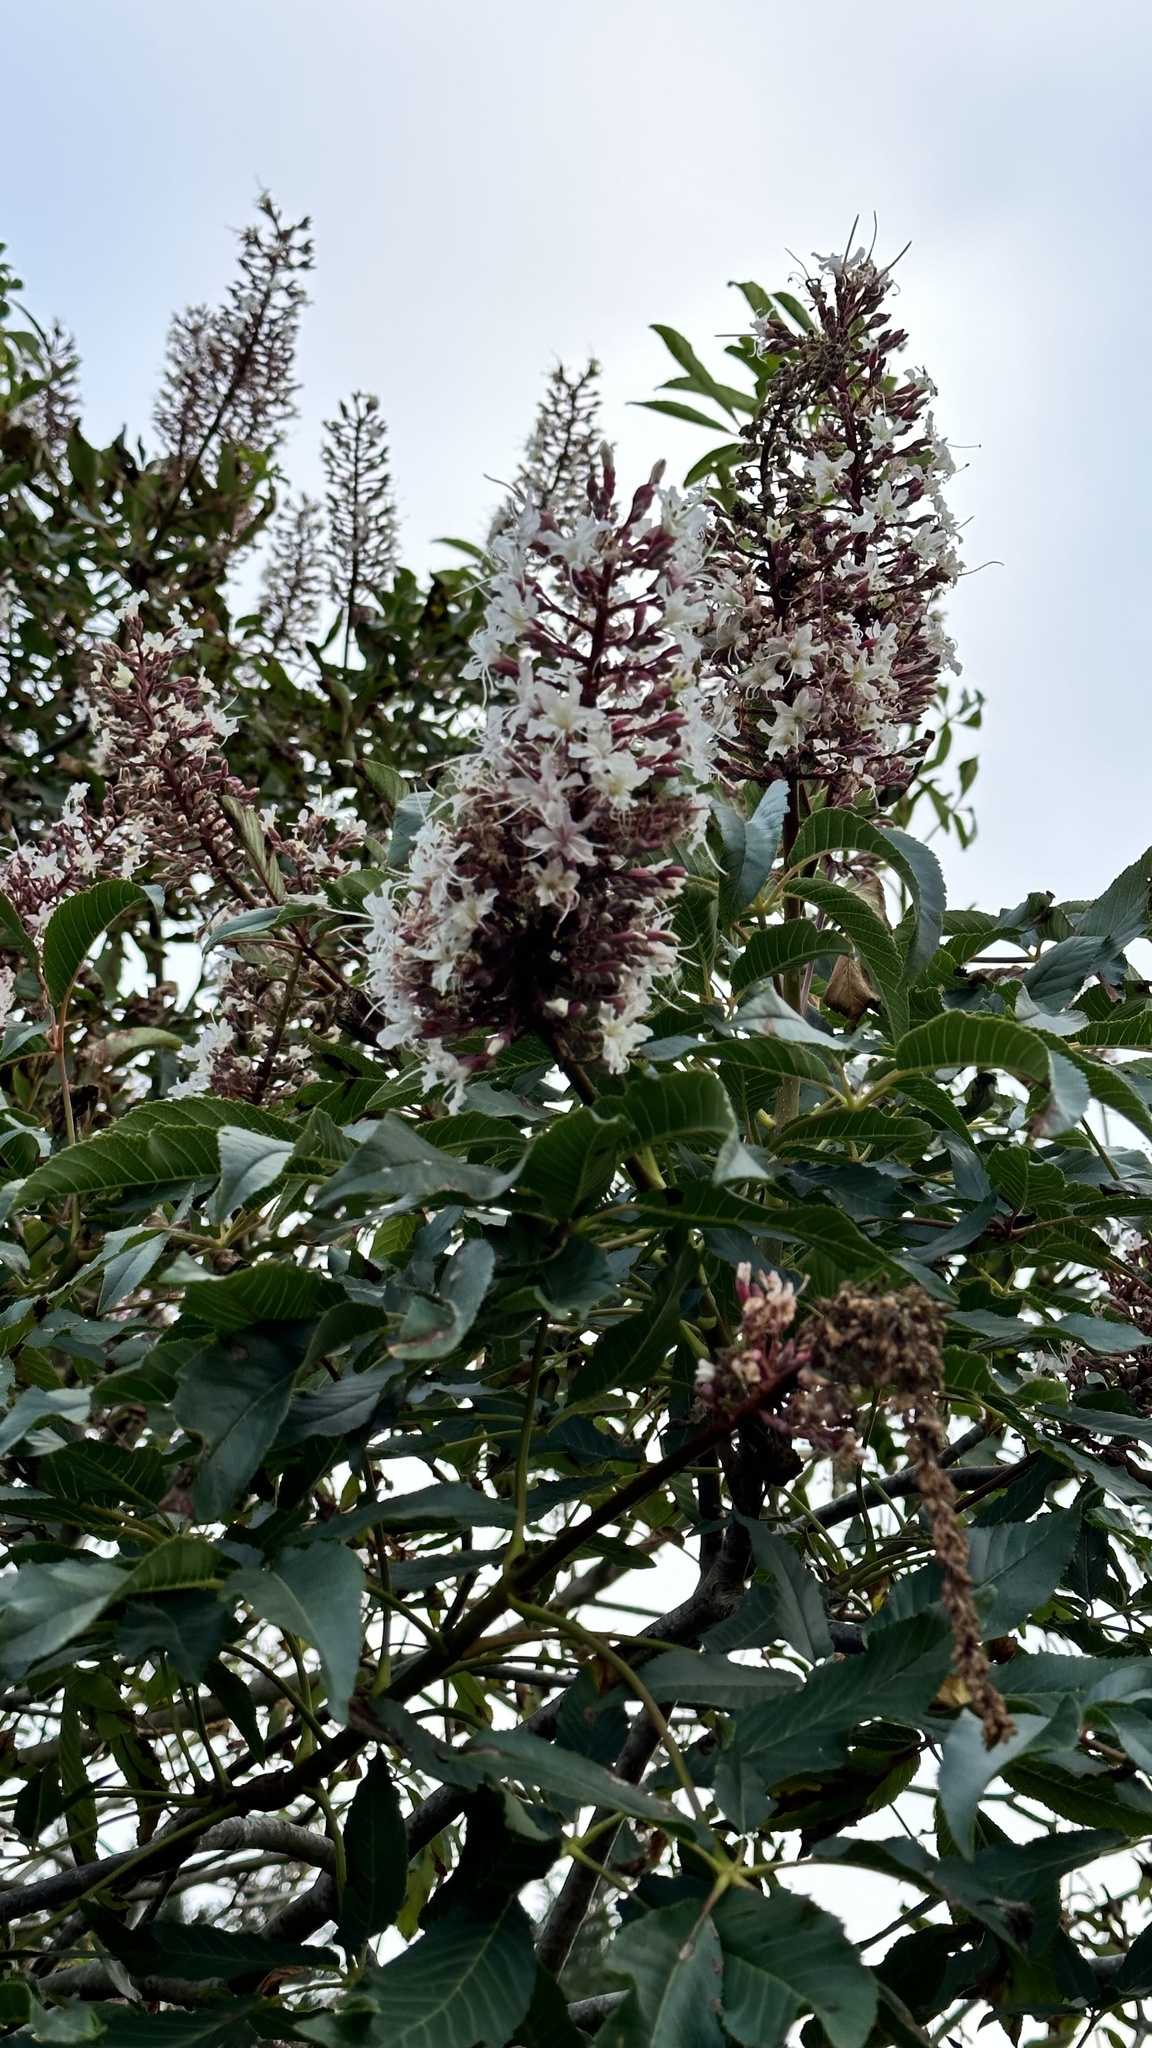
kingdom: Plantae
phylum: Tracheophyta
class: Magnoliopsida
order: Sapindales
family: Sapindaceae
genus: Aesculus
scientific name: Aesculus californica
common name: California buckeye
